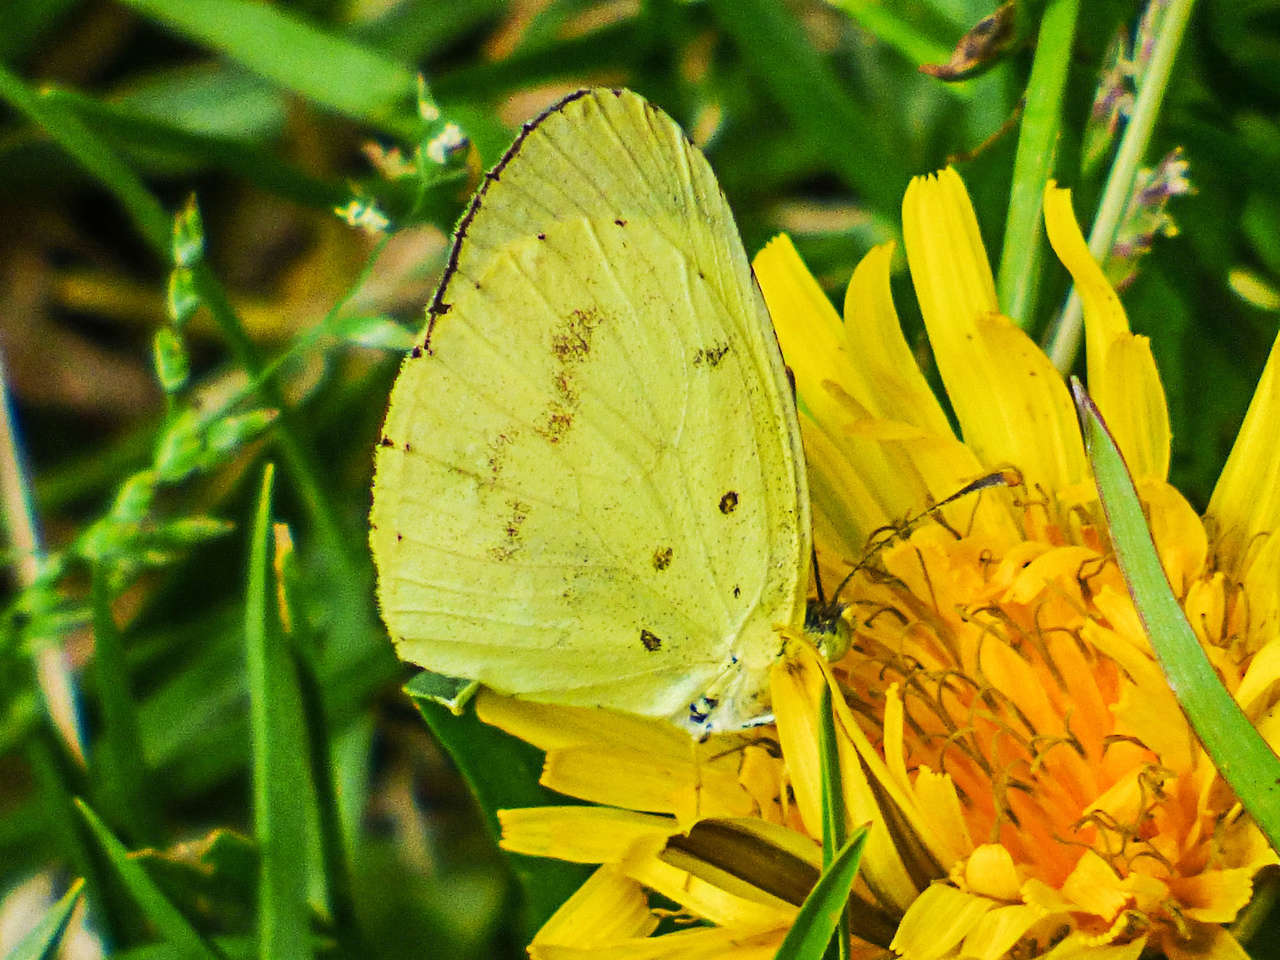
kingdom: Animalia
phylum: Arthropoda
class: Insecta
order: Lepidoptera
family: Pieridae
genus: Eurema
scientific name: Eurema smilax
